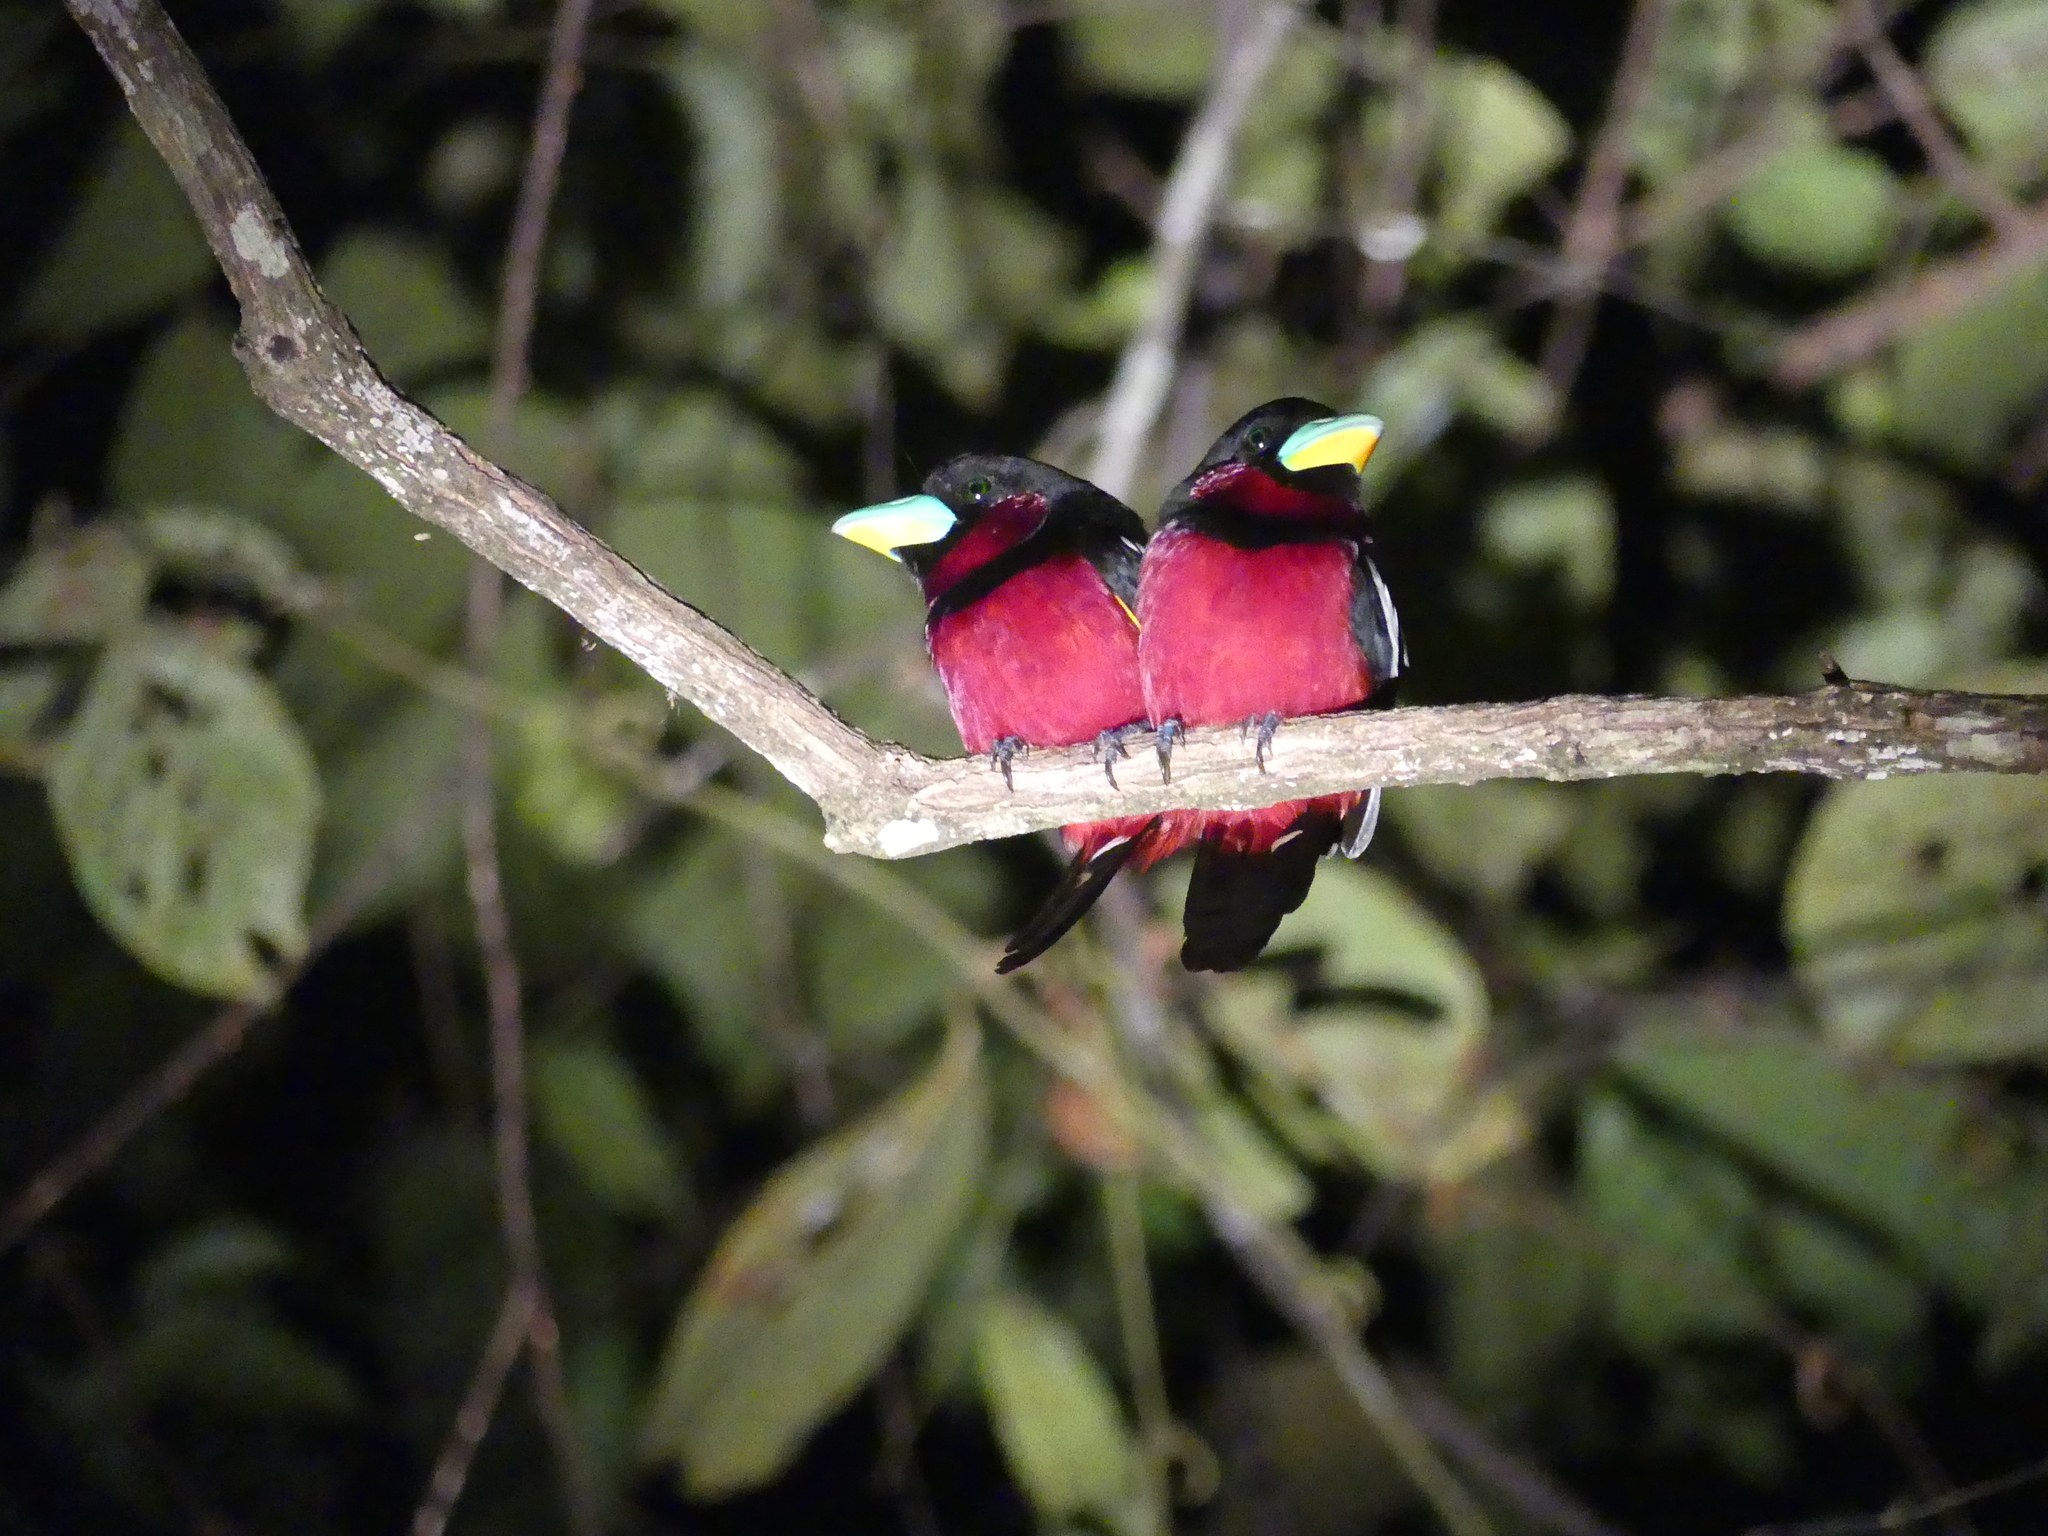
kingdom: Animalia
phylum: Chordata
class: Aves
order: Passeriformes
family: Eurylaimidae
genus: Cymbirhynchus
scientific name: Cymbirhynchus macrorhynchos
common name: Black-and-red broadbill
